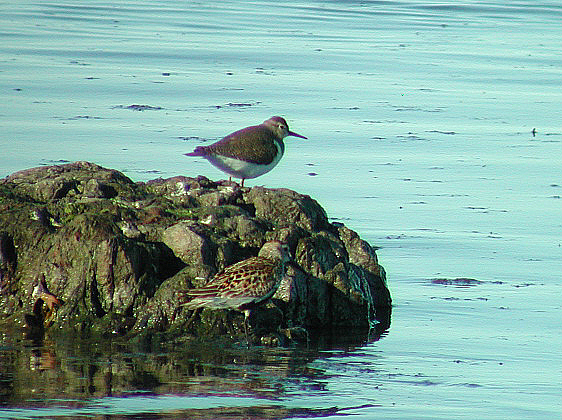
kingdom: Animalia
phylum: Chordata
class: Aves
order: Charadriiformes
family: Scolopacidae
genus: Actitis
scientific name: Actitis hypoleucos
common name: Common sandpiper
